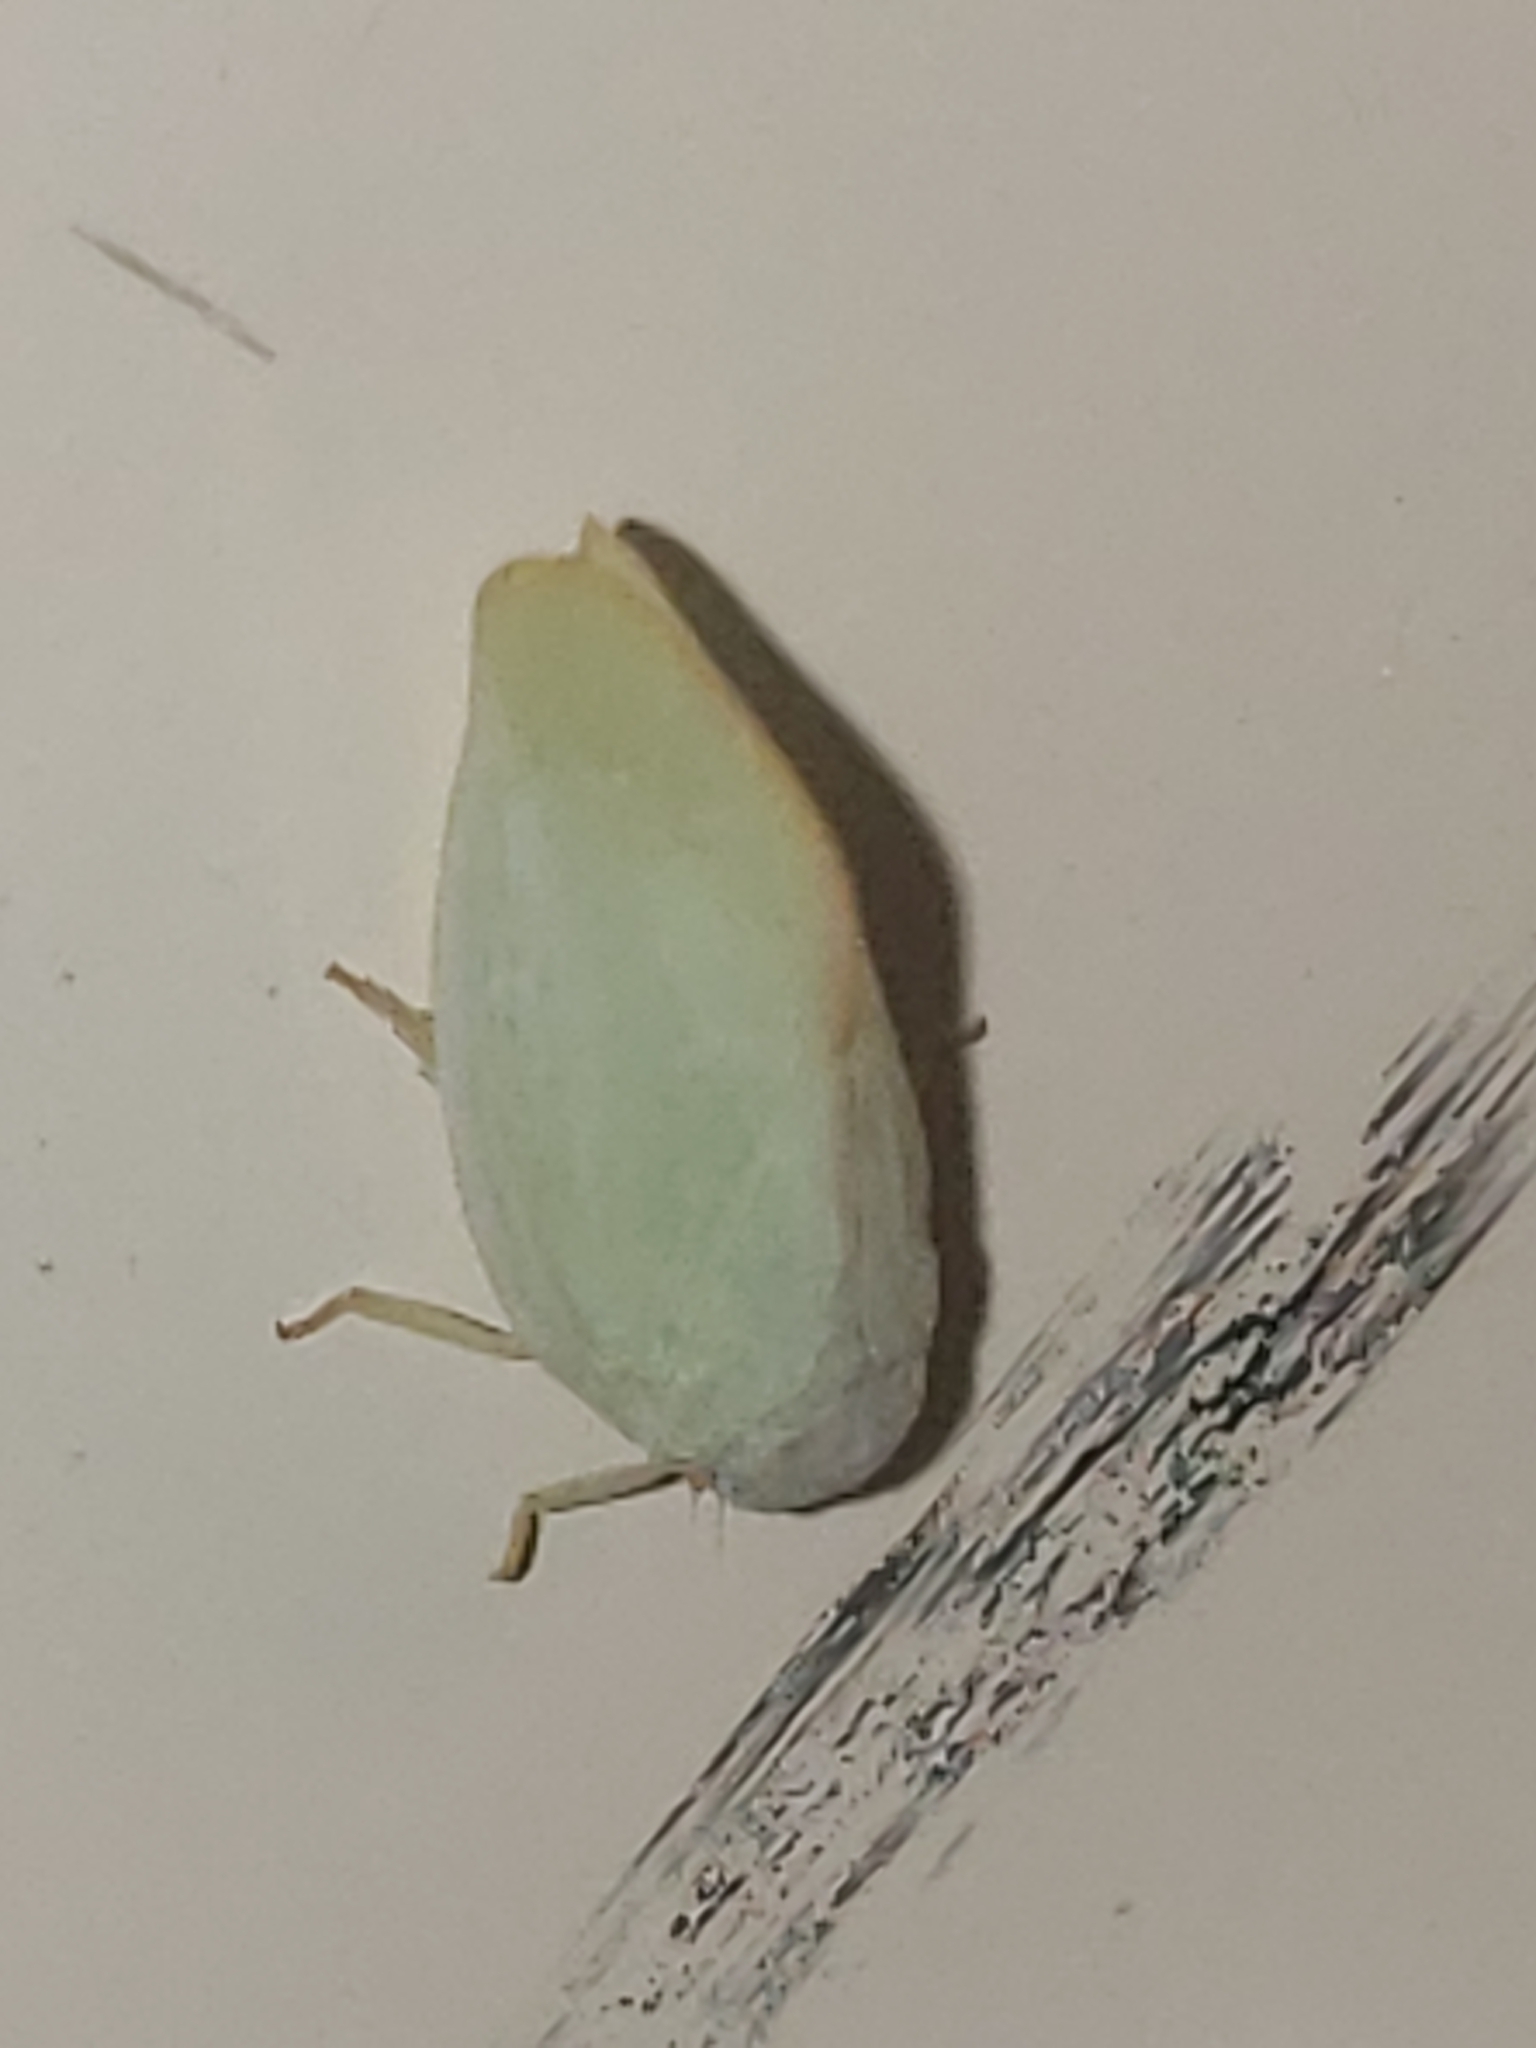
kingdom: Animalia
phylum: Arthropoda
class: Insecta
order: Hemiptera
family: Flatidae
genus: Ormenoides
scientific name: Ormenoides venusta
